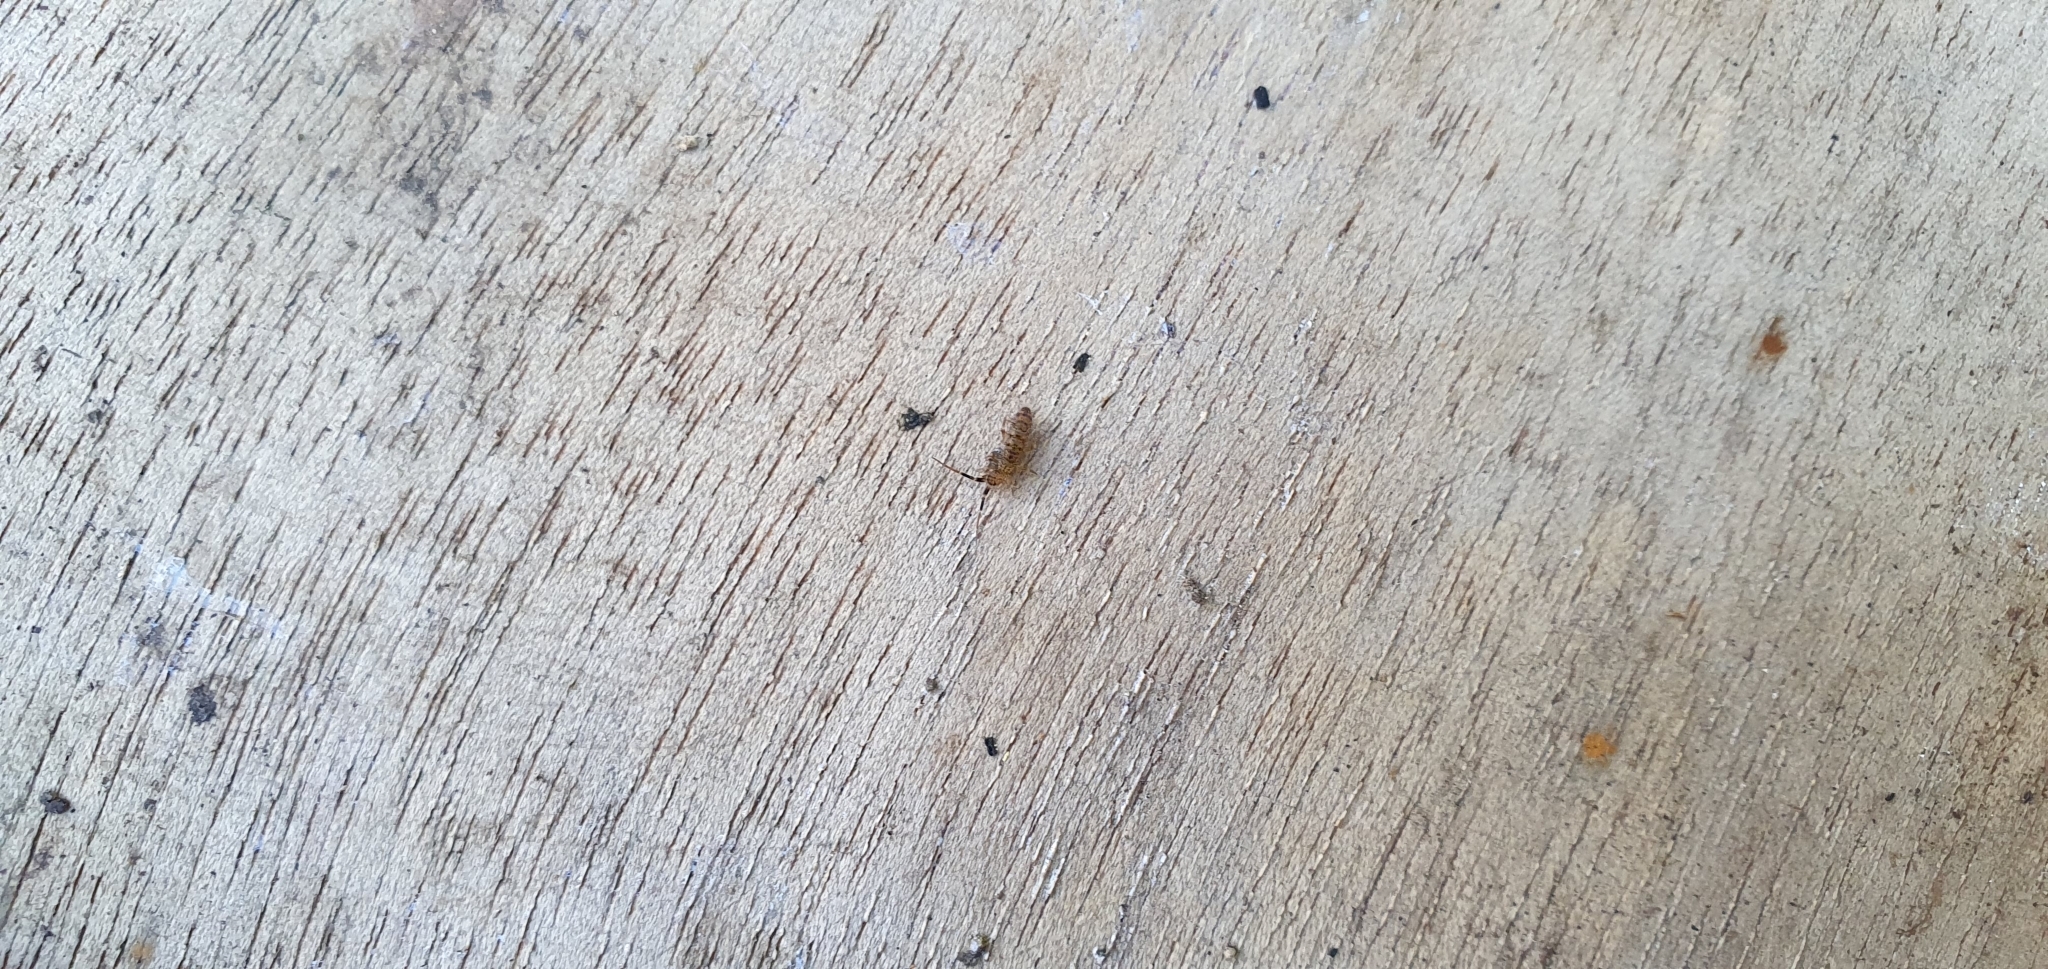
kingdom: Animalia
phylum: Arthropoda
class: Collembola
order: Entomobryomorpha
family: Orchesellidae
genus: Orchesella
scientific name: Orchesella villosa
